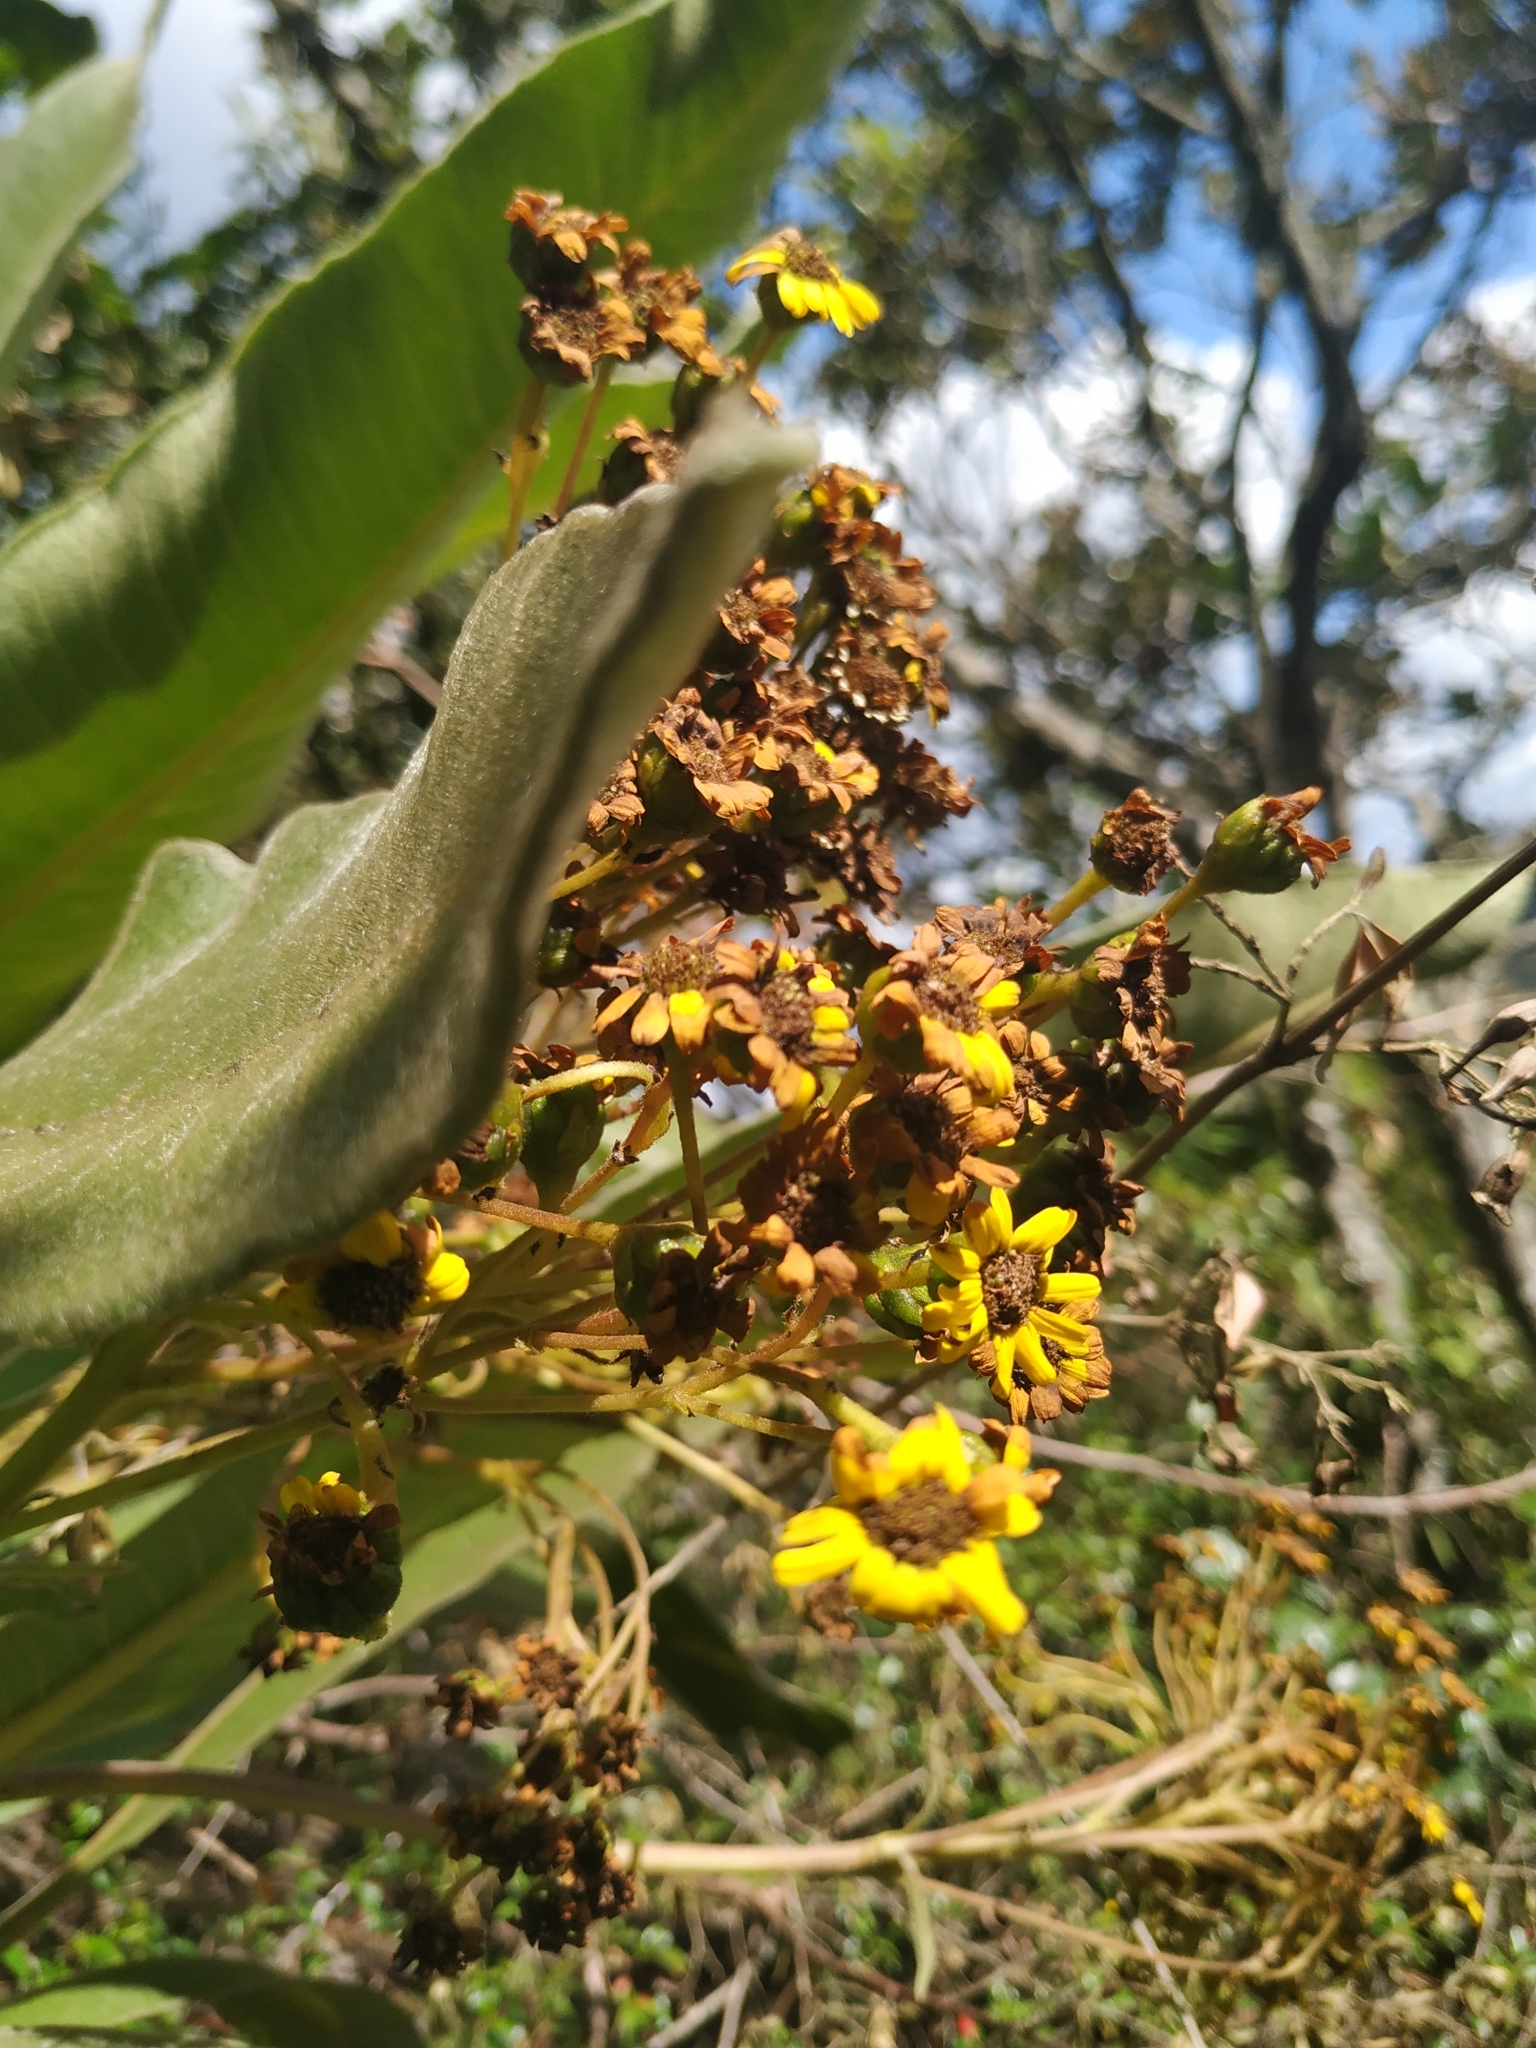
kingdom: Plantae
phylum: Tracheophyta
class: Magnoliopsida
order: Asterales
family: Asteraceae
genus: Espeletia
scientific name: Espeletia pleiochasia
